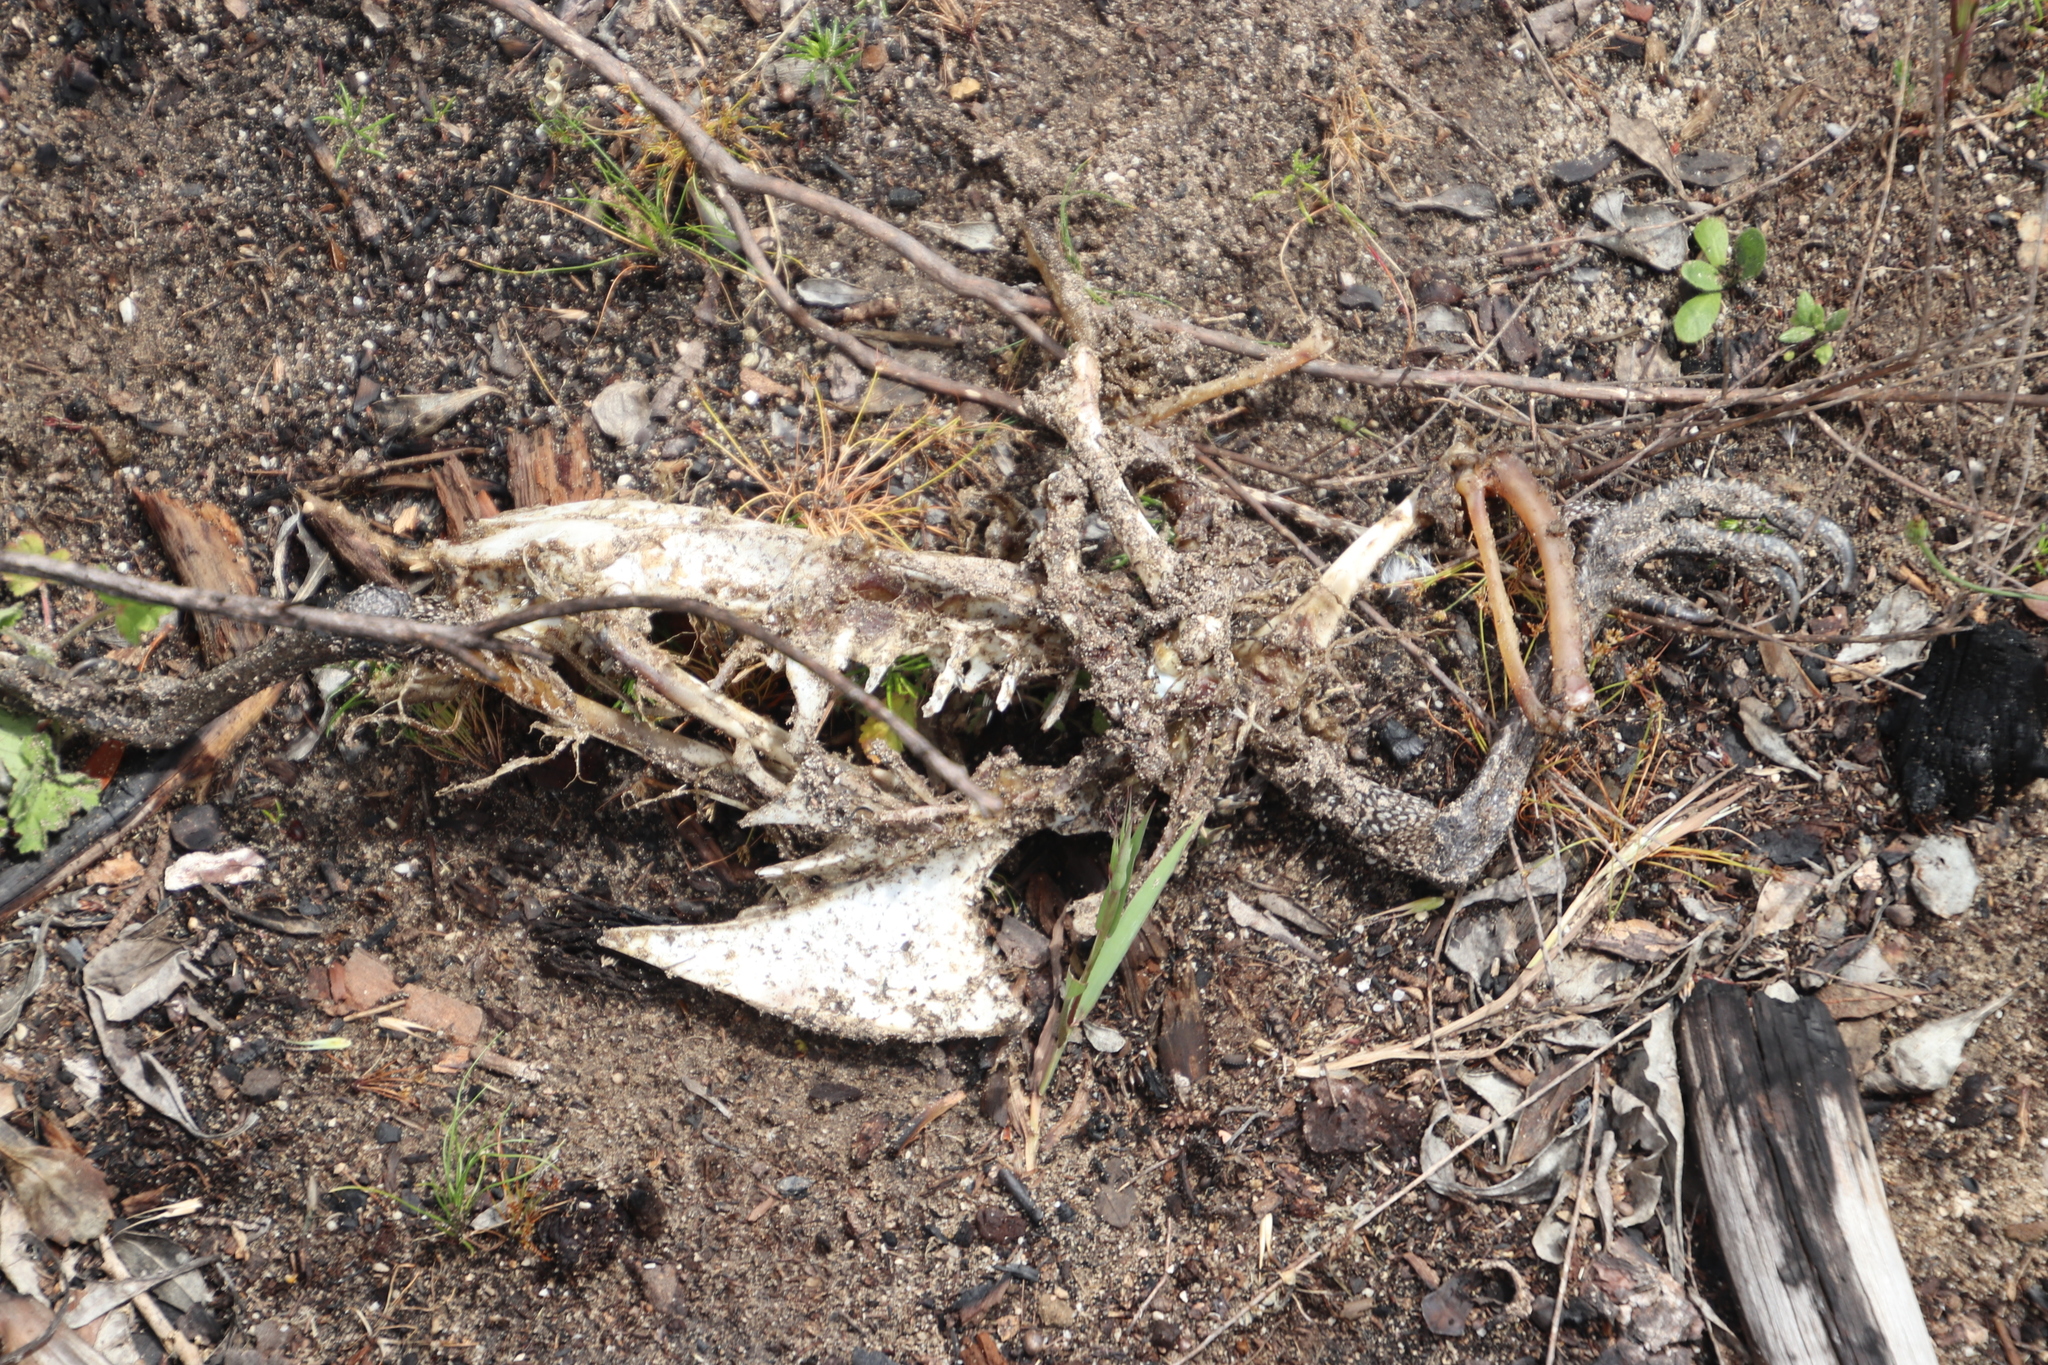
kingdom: Animalia
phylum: Chordata
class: Aves
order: Galliformes
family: Numididae
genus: Numida
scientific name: Numida meleagris
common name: Helmeted guineafowl
